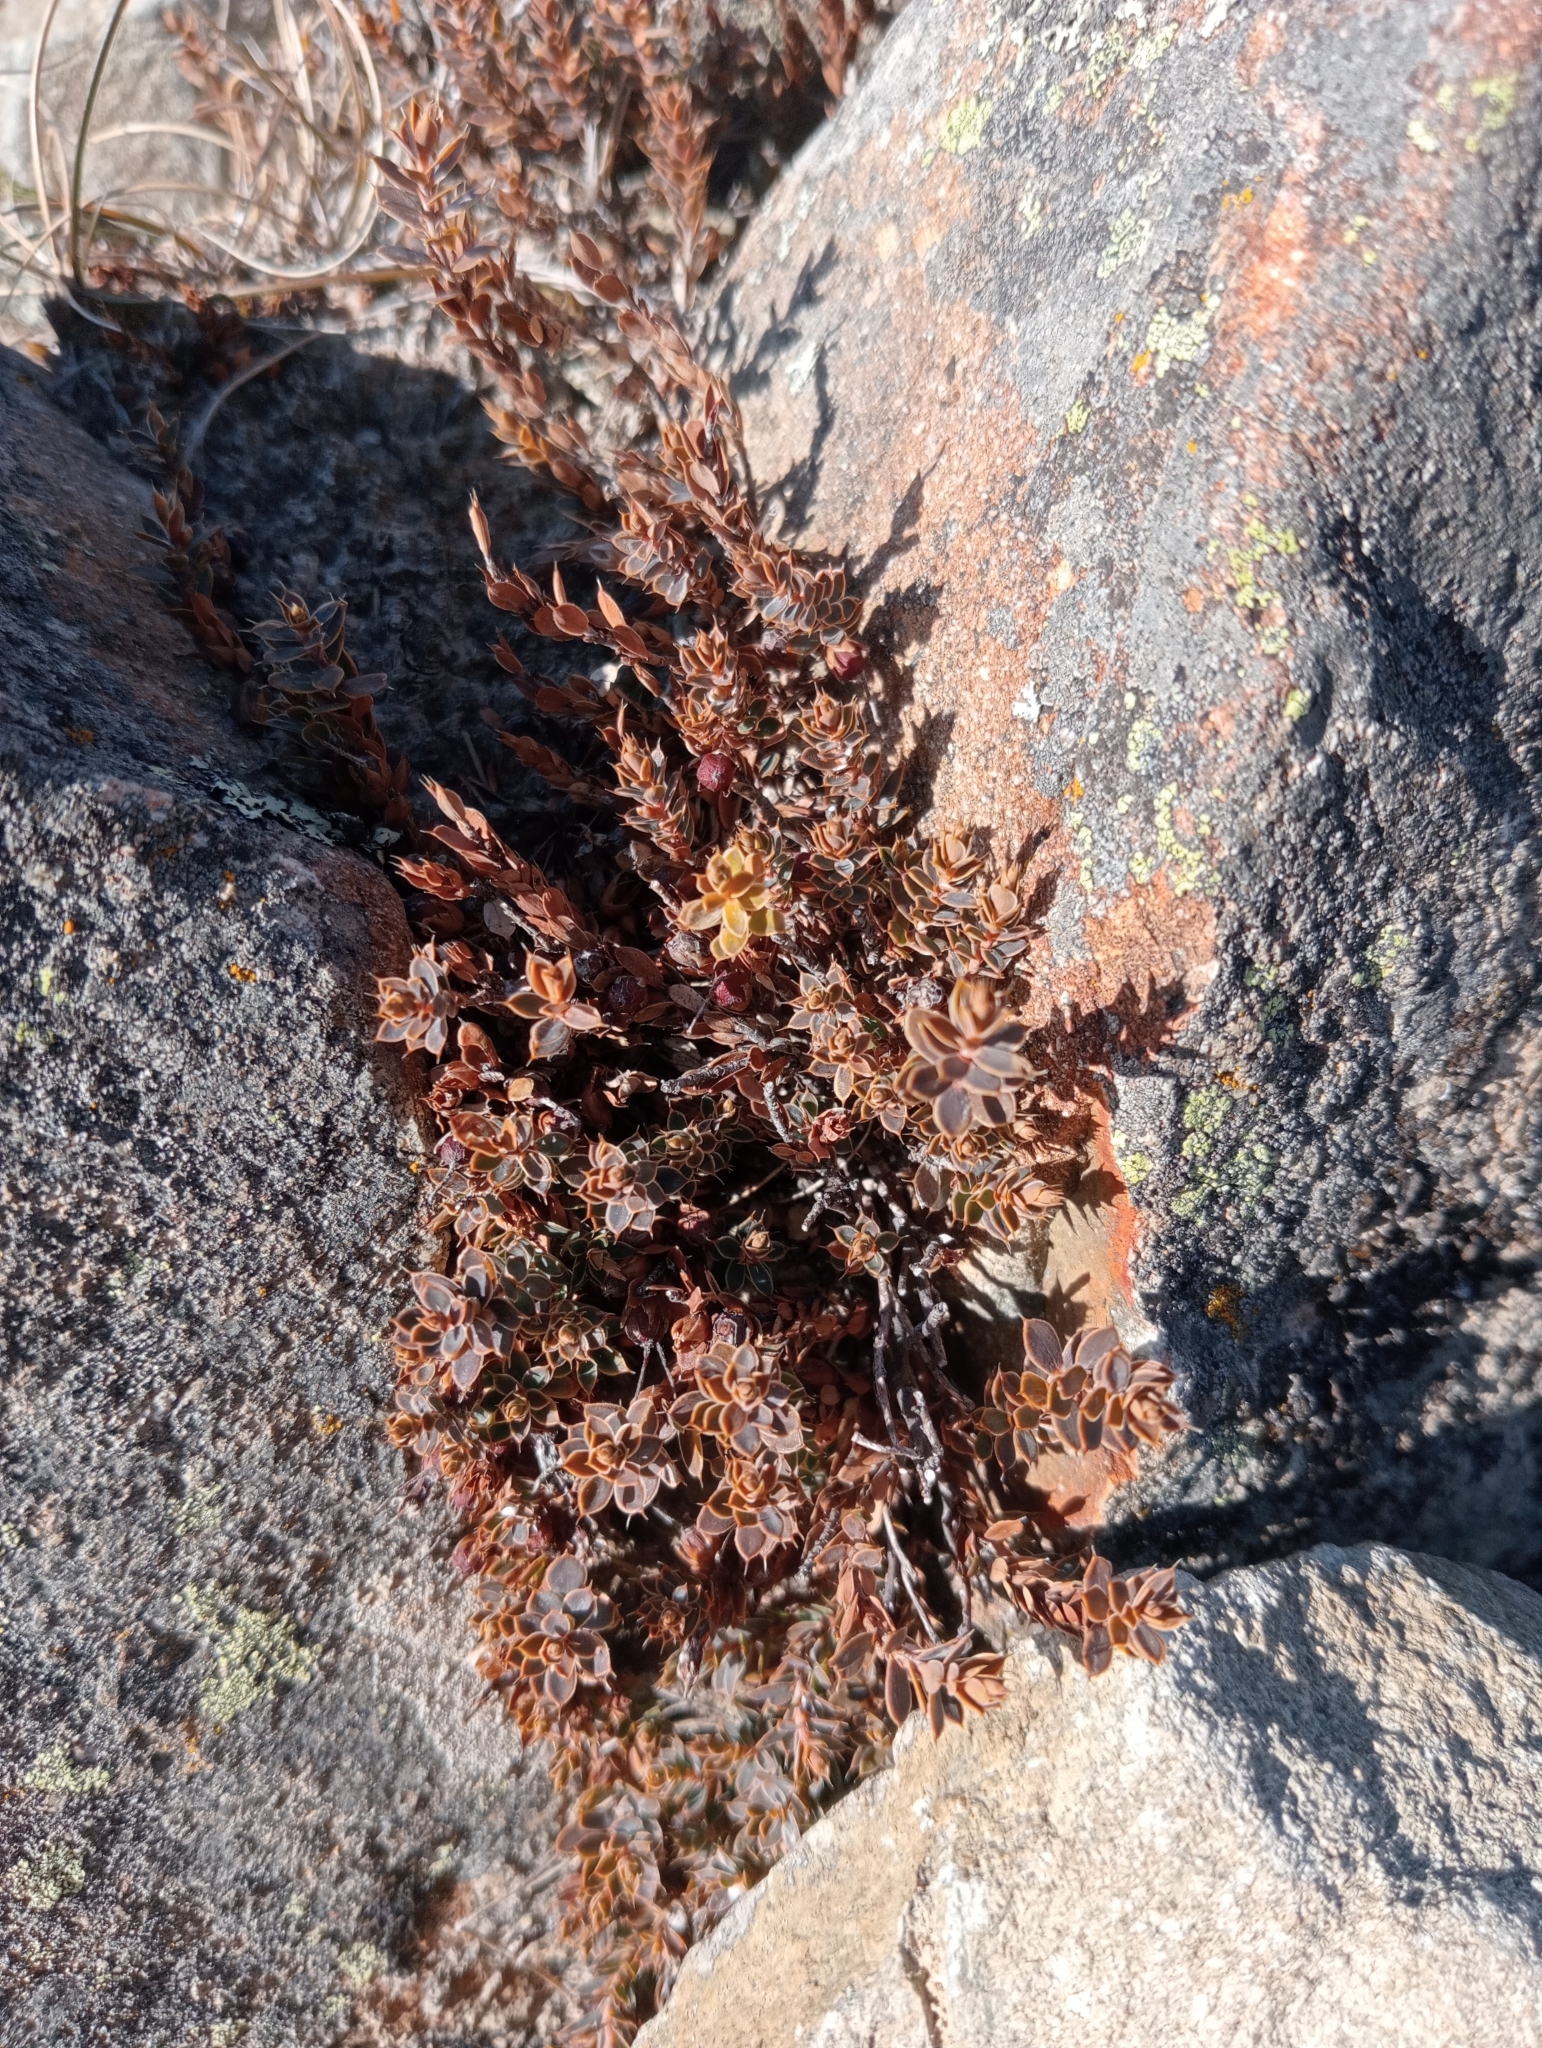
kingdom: Plantae
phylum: Tracheophyta
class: Magnoliopsida
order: Ericales
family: Ericaceae
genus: Styphelia
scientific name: Styphelia nesophila
